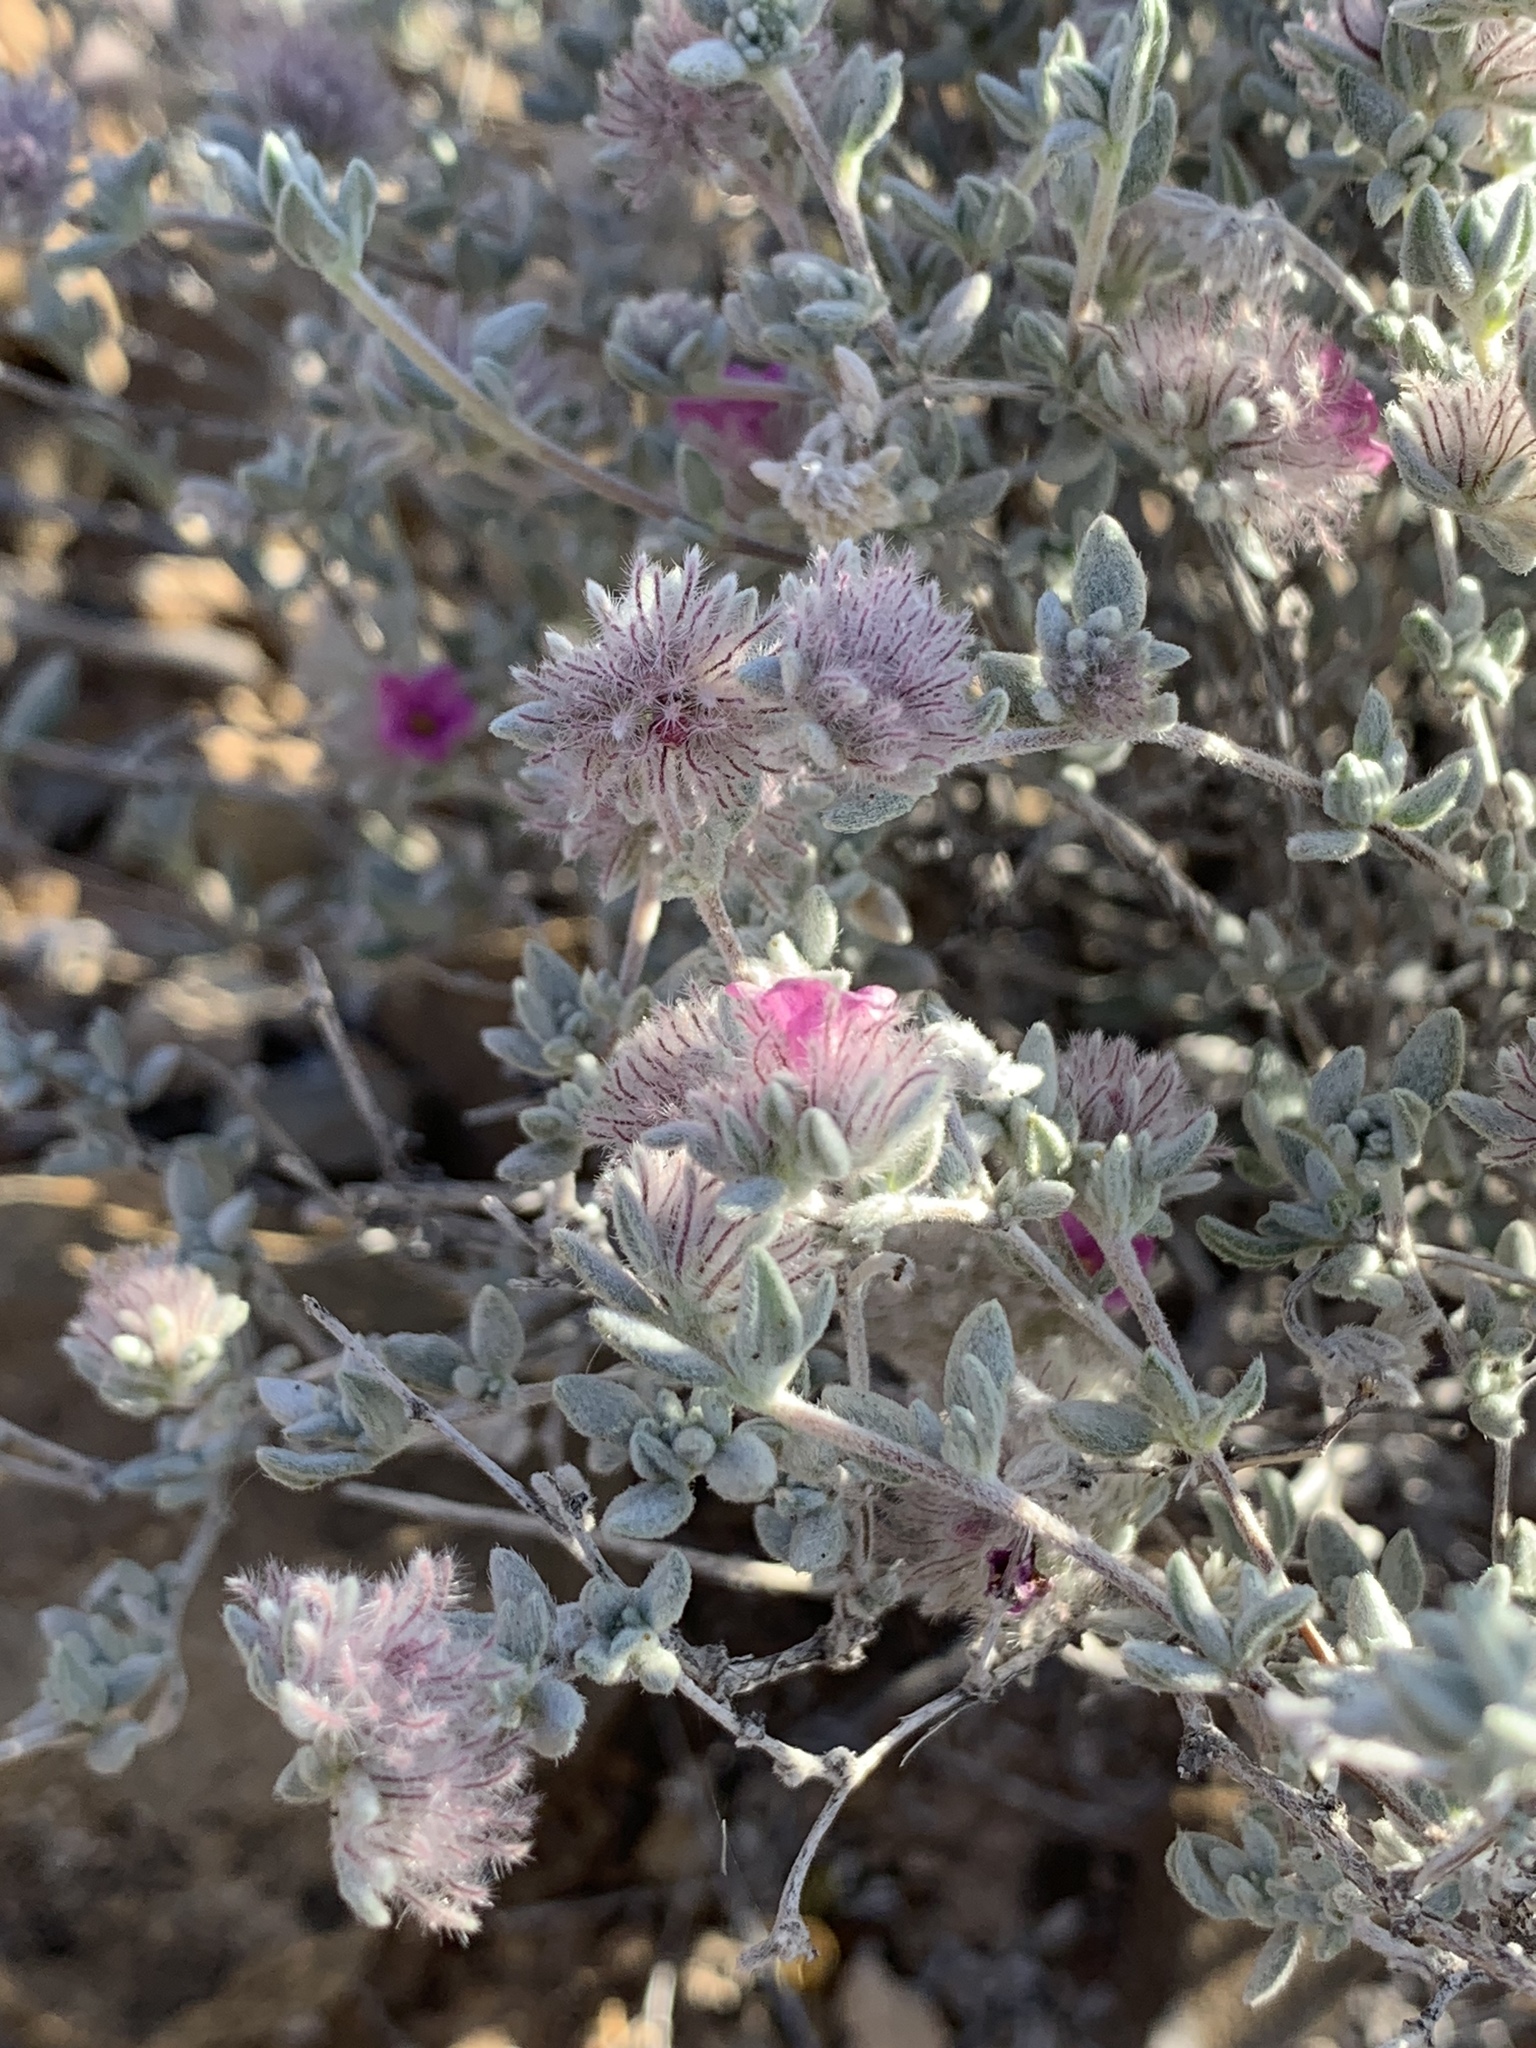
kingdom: Plantae
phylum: Tracheophyta
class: Magnoliopsida
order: Boraginales
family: Ehretiaceae
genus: Tiquilia
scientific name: Tiquilia greggii
